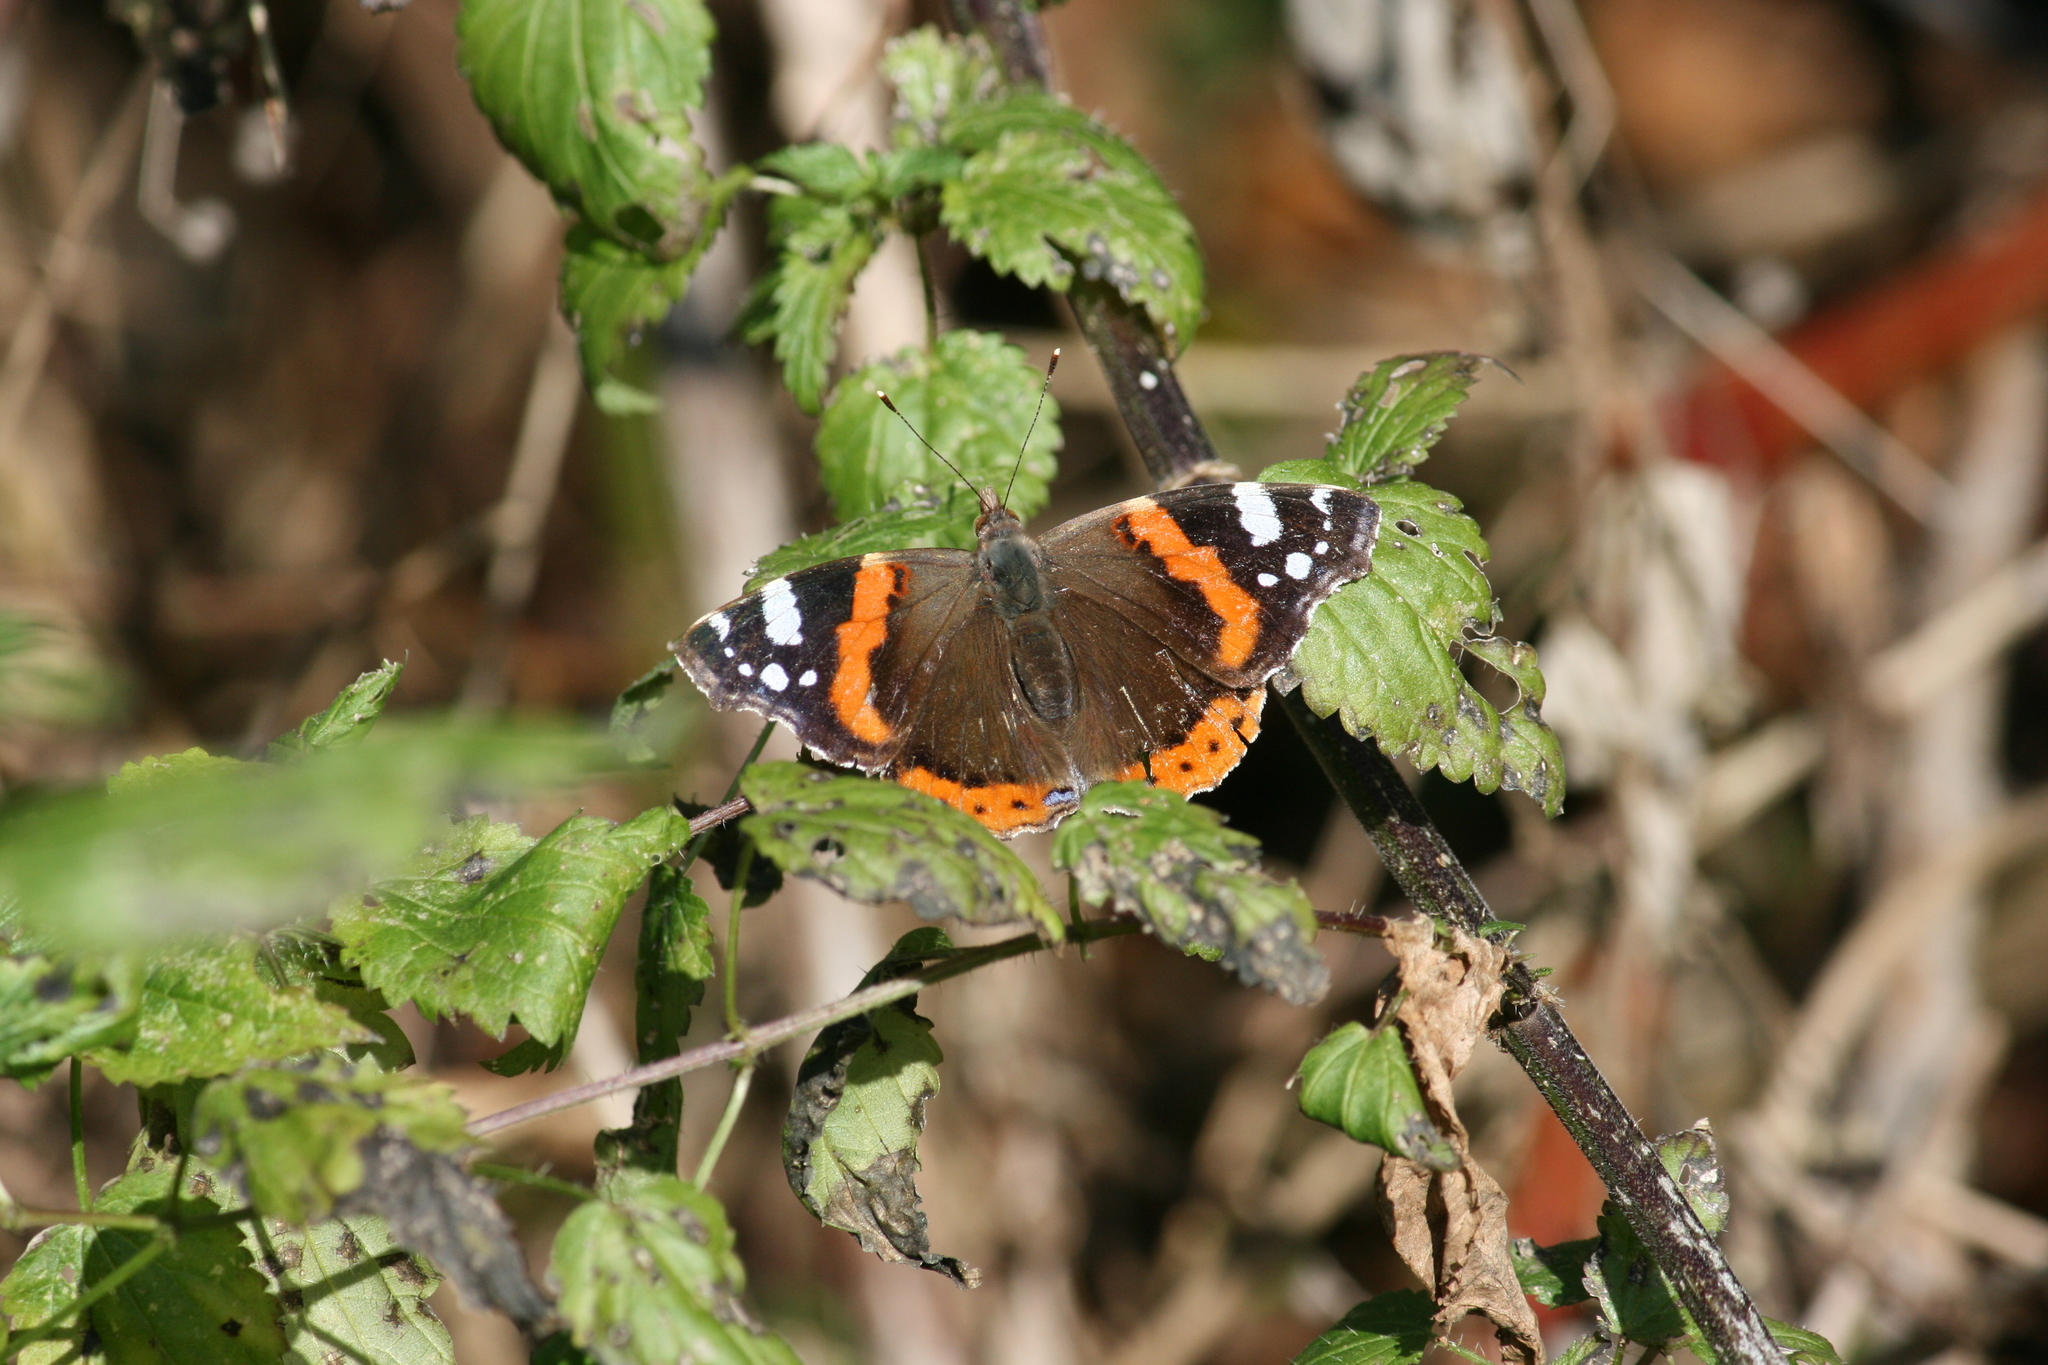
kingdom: Animalia
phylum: Arthropoda
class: Insecta
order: Lepidoptera
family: Nymphalidae
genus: Vanessa
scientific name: Vanessa atalanta
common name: Red admiral
